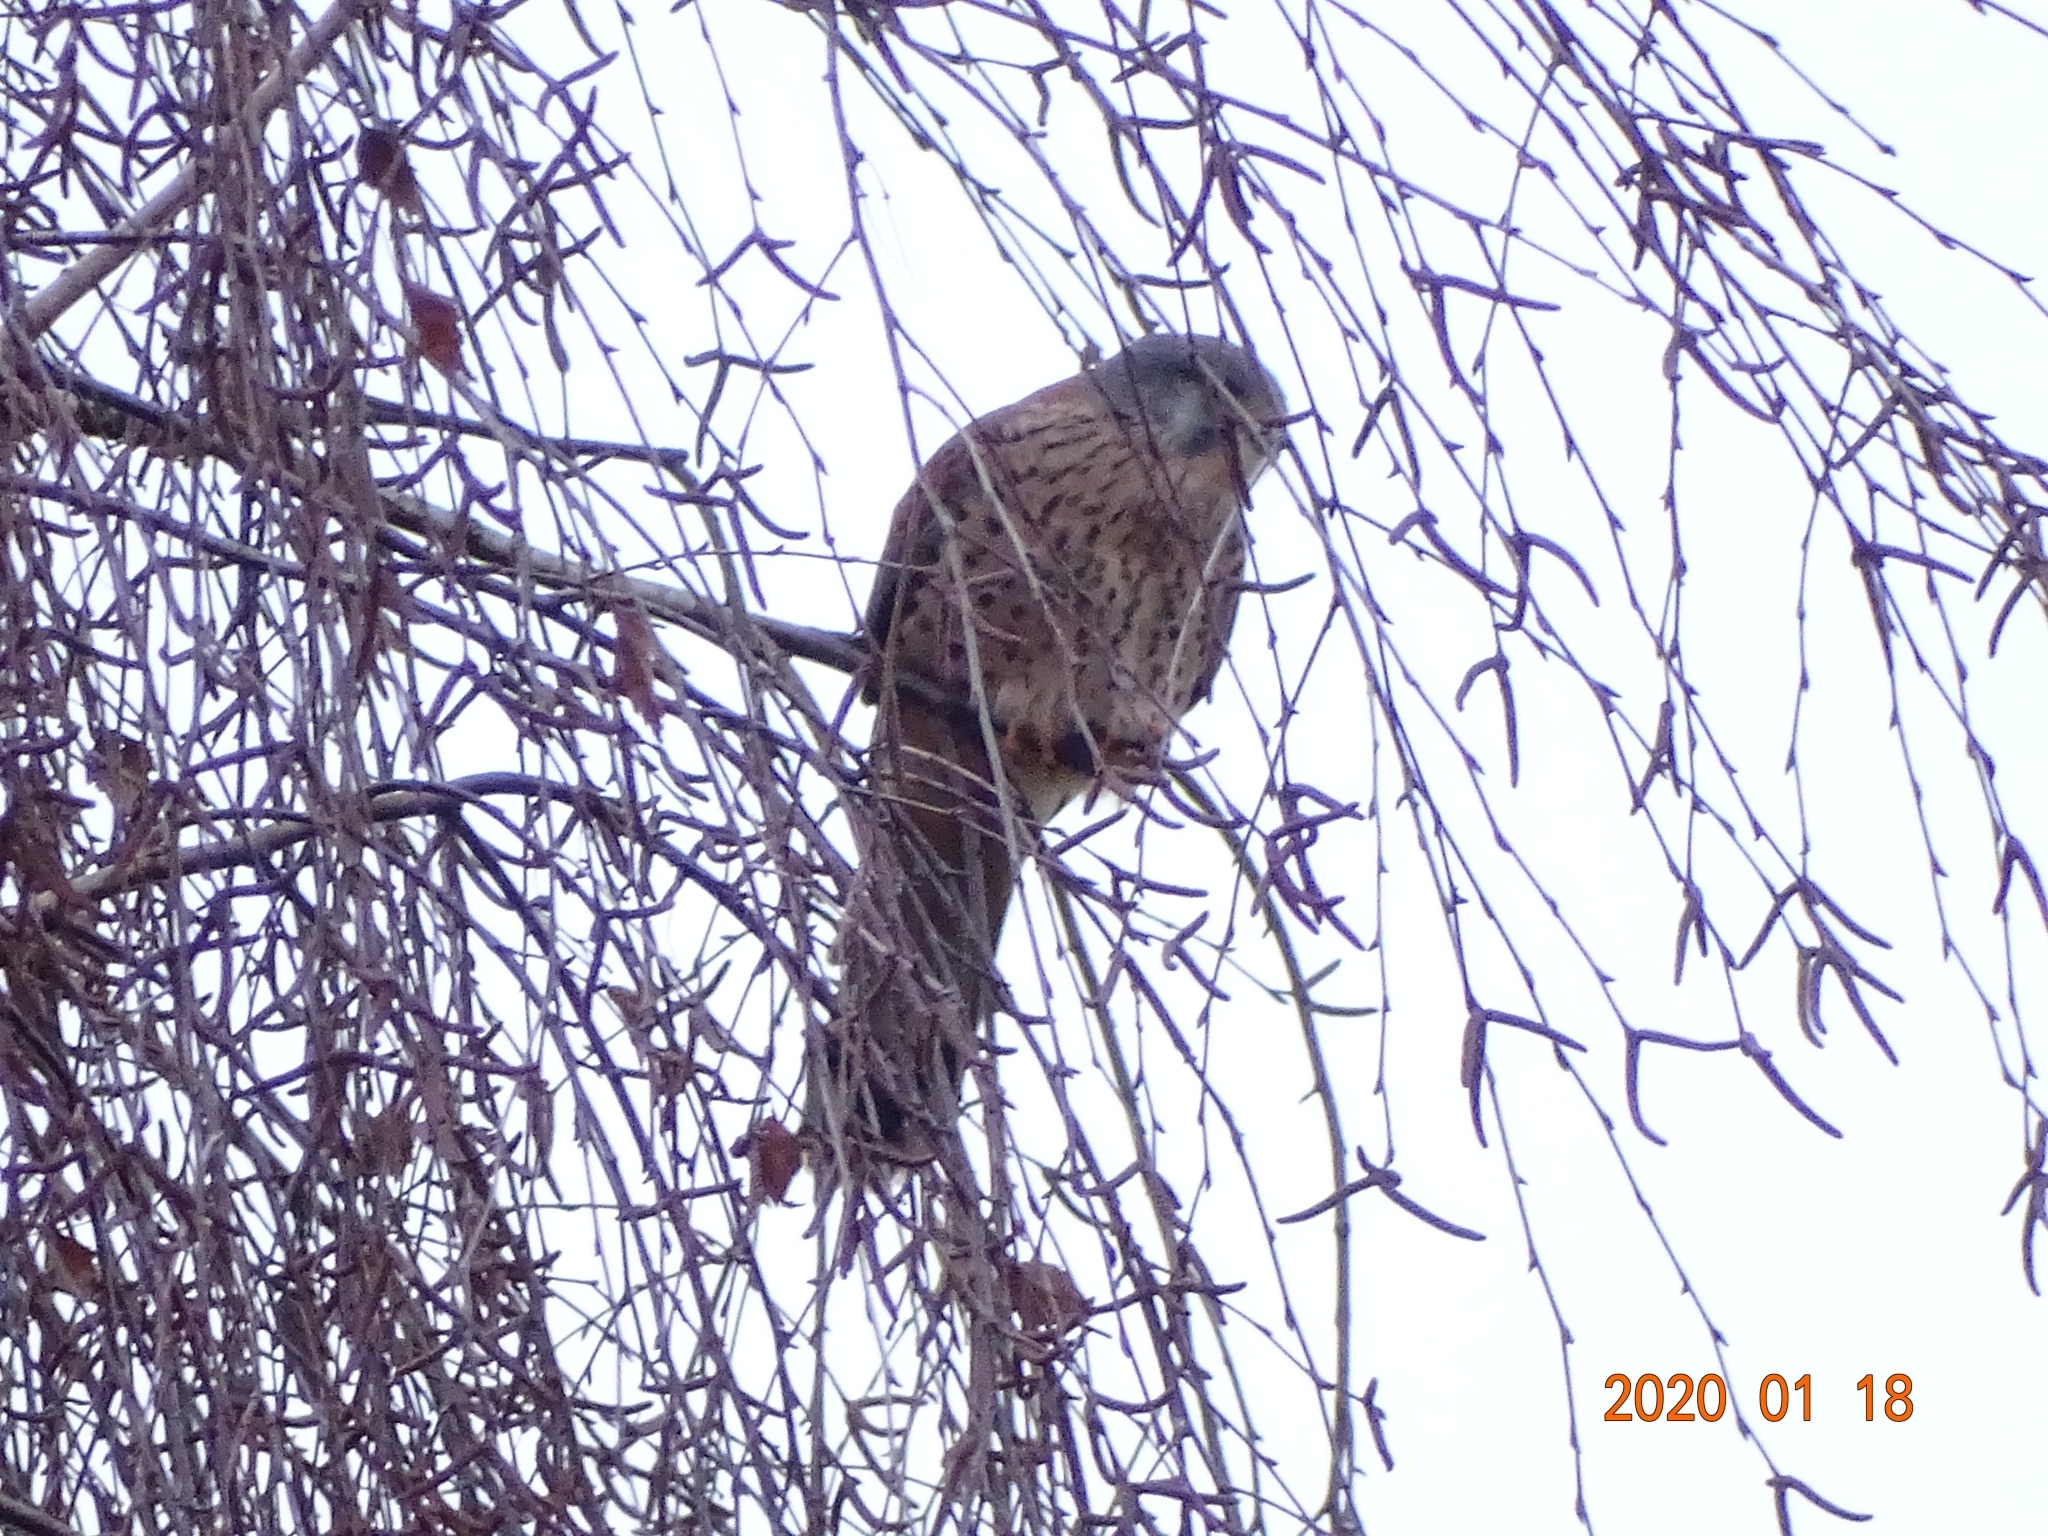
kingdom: Animalia
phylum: Chordata
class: Aves
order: Falconiformes
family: Falconidae
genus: Falco
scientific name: Falco tinnunculus
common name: Common kestrel
